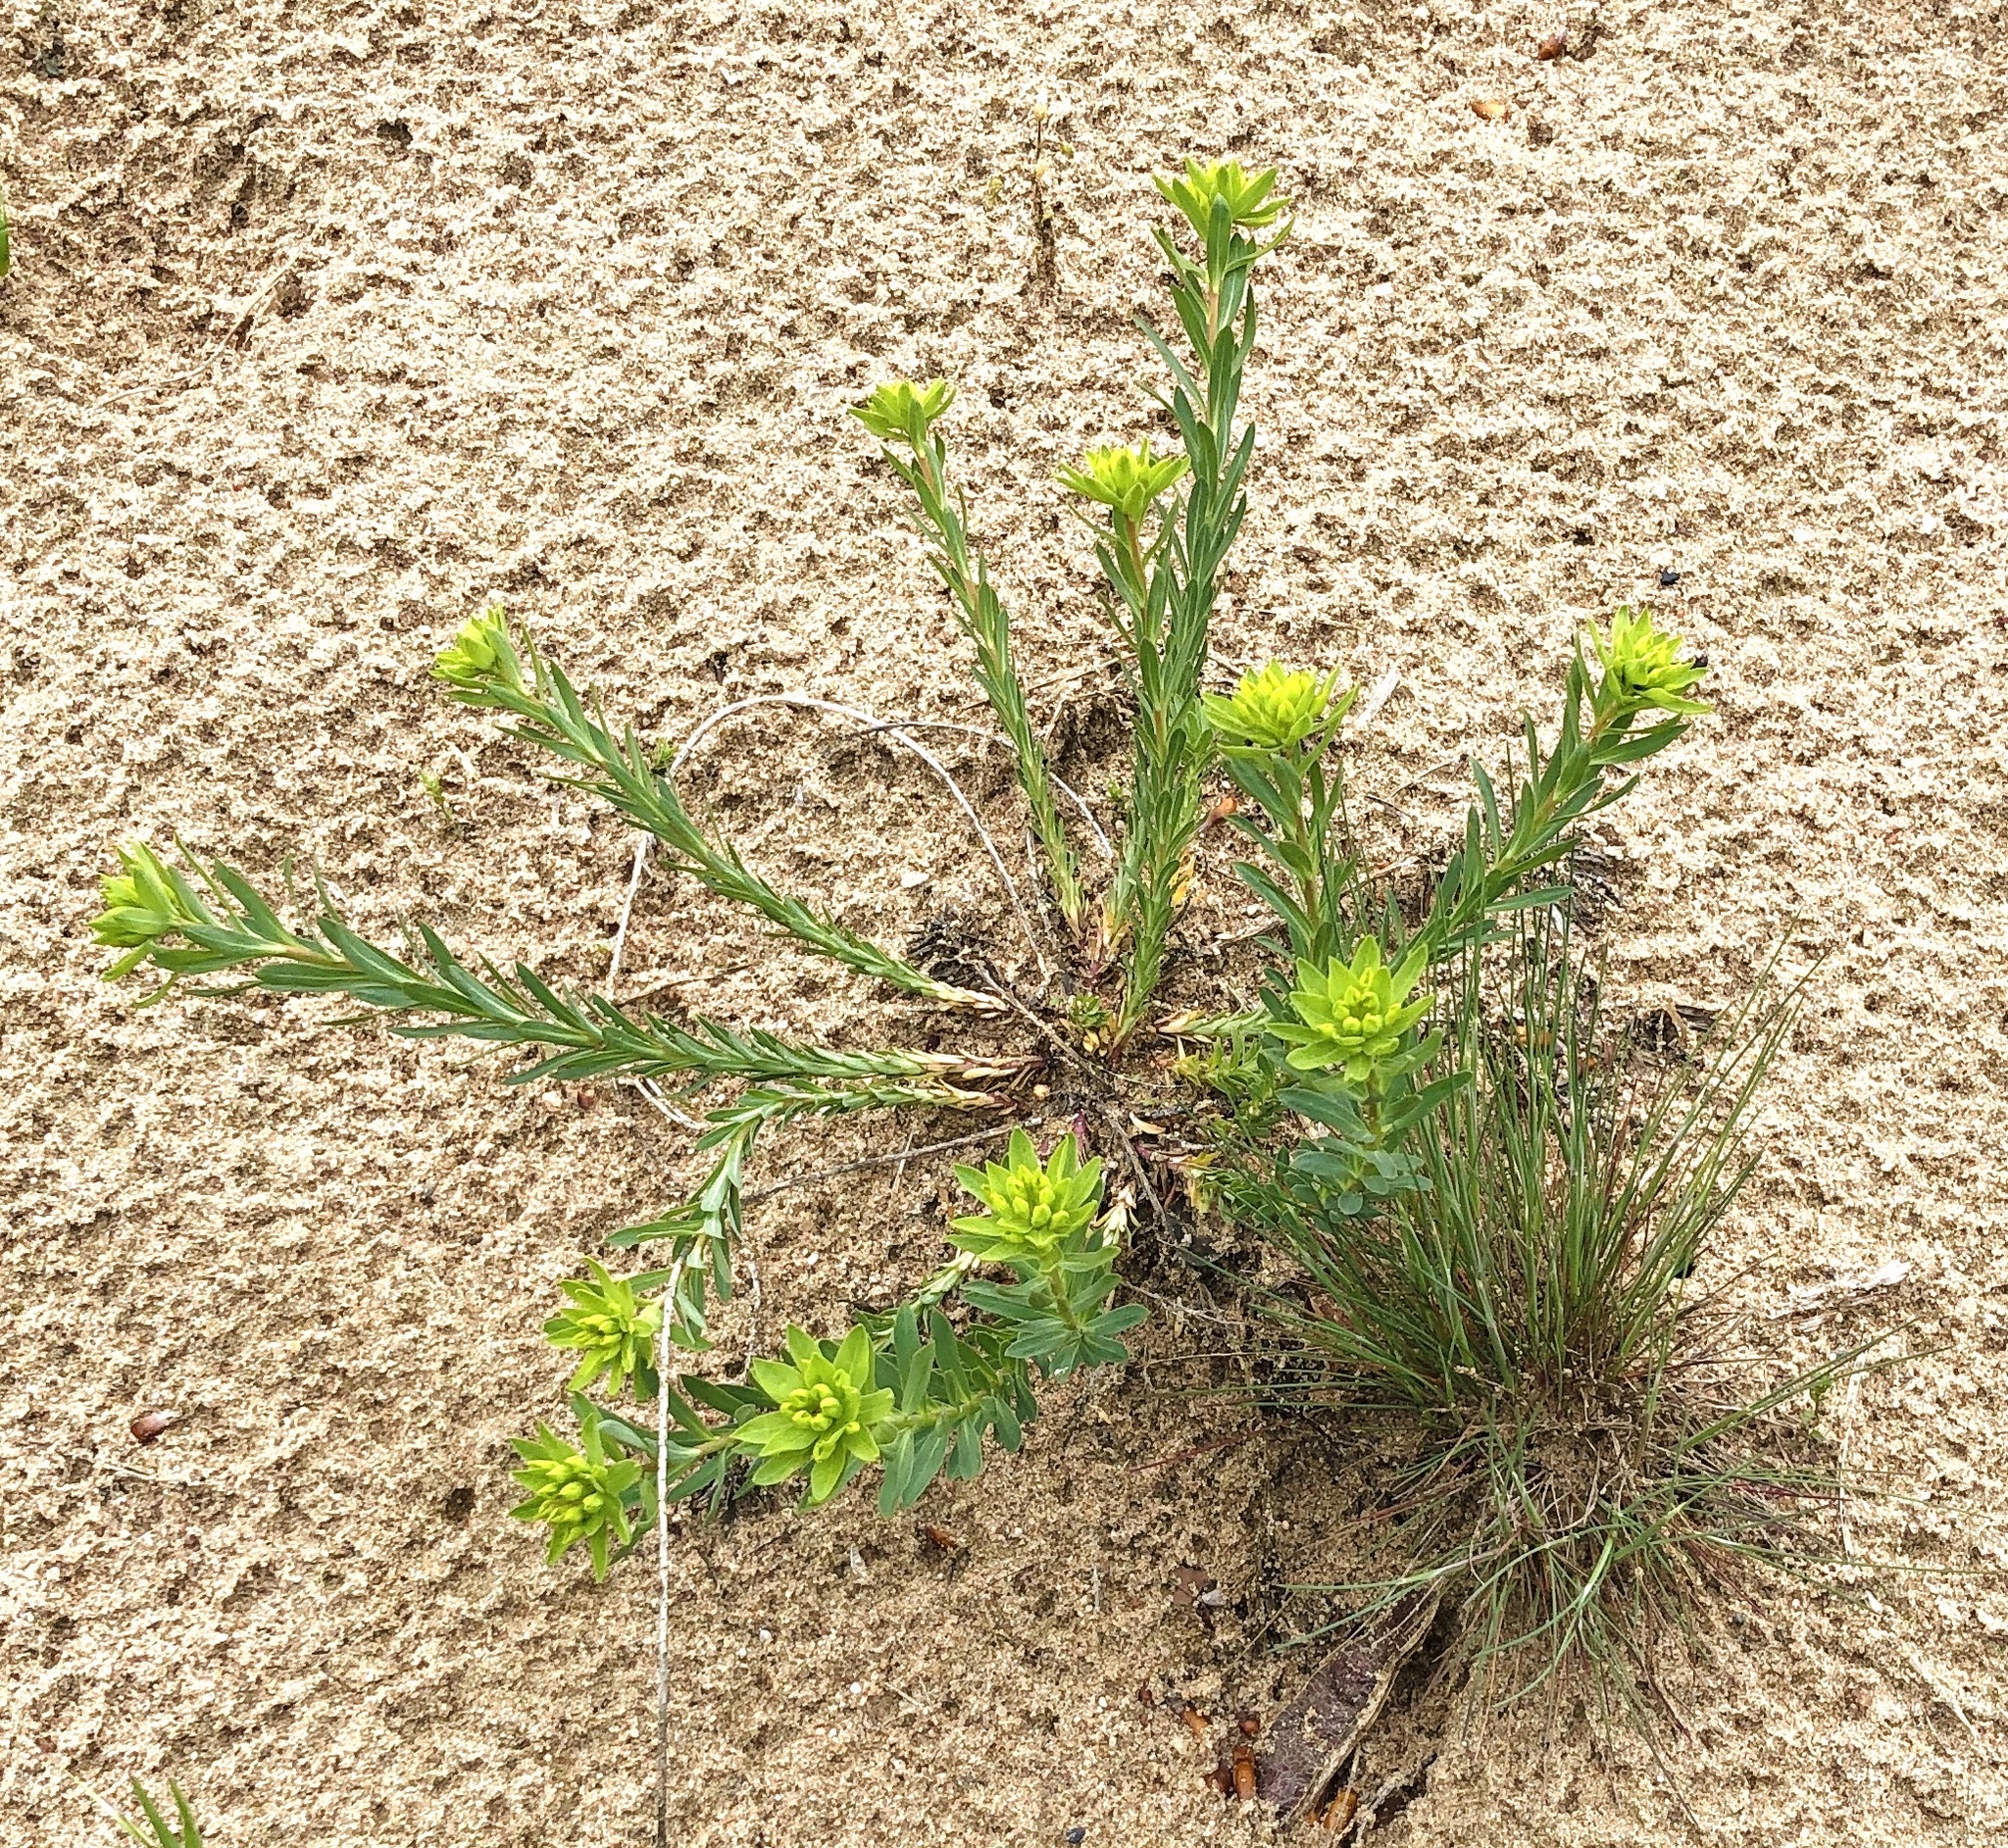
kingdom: Plantae
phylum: Tracheophyta
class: Magnoliopsida
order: Malpighiales
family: Euphorbiaceae
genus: Euphorbia
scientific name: Euphorbia seguieriana
